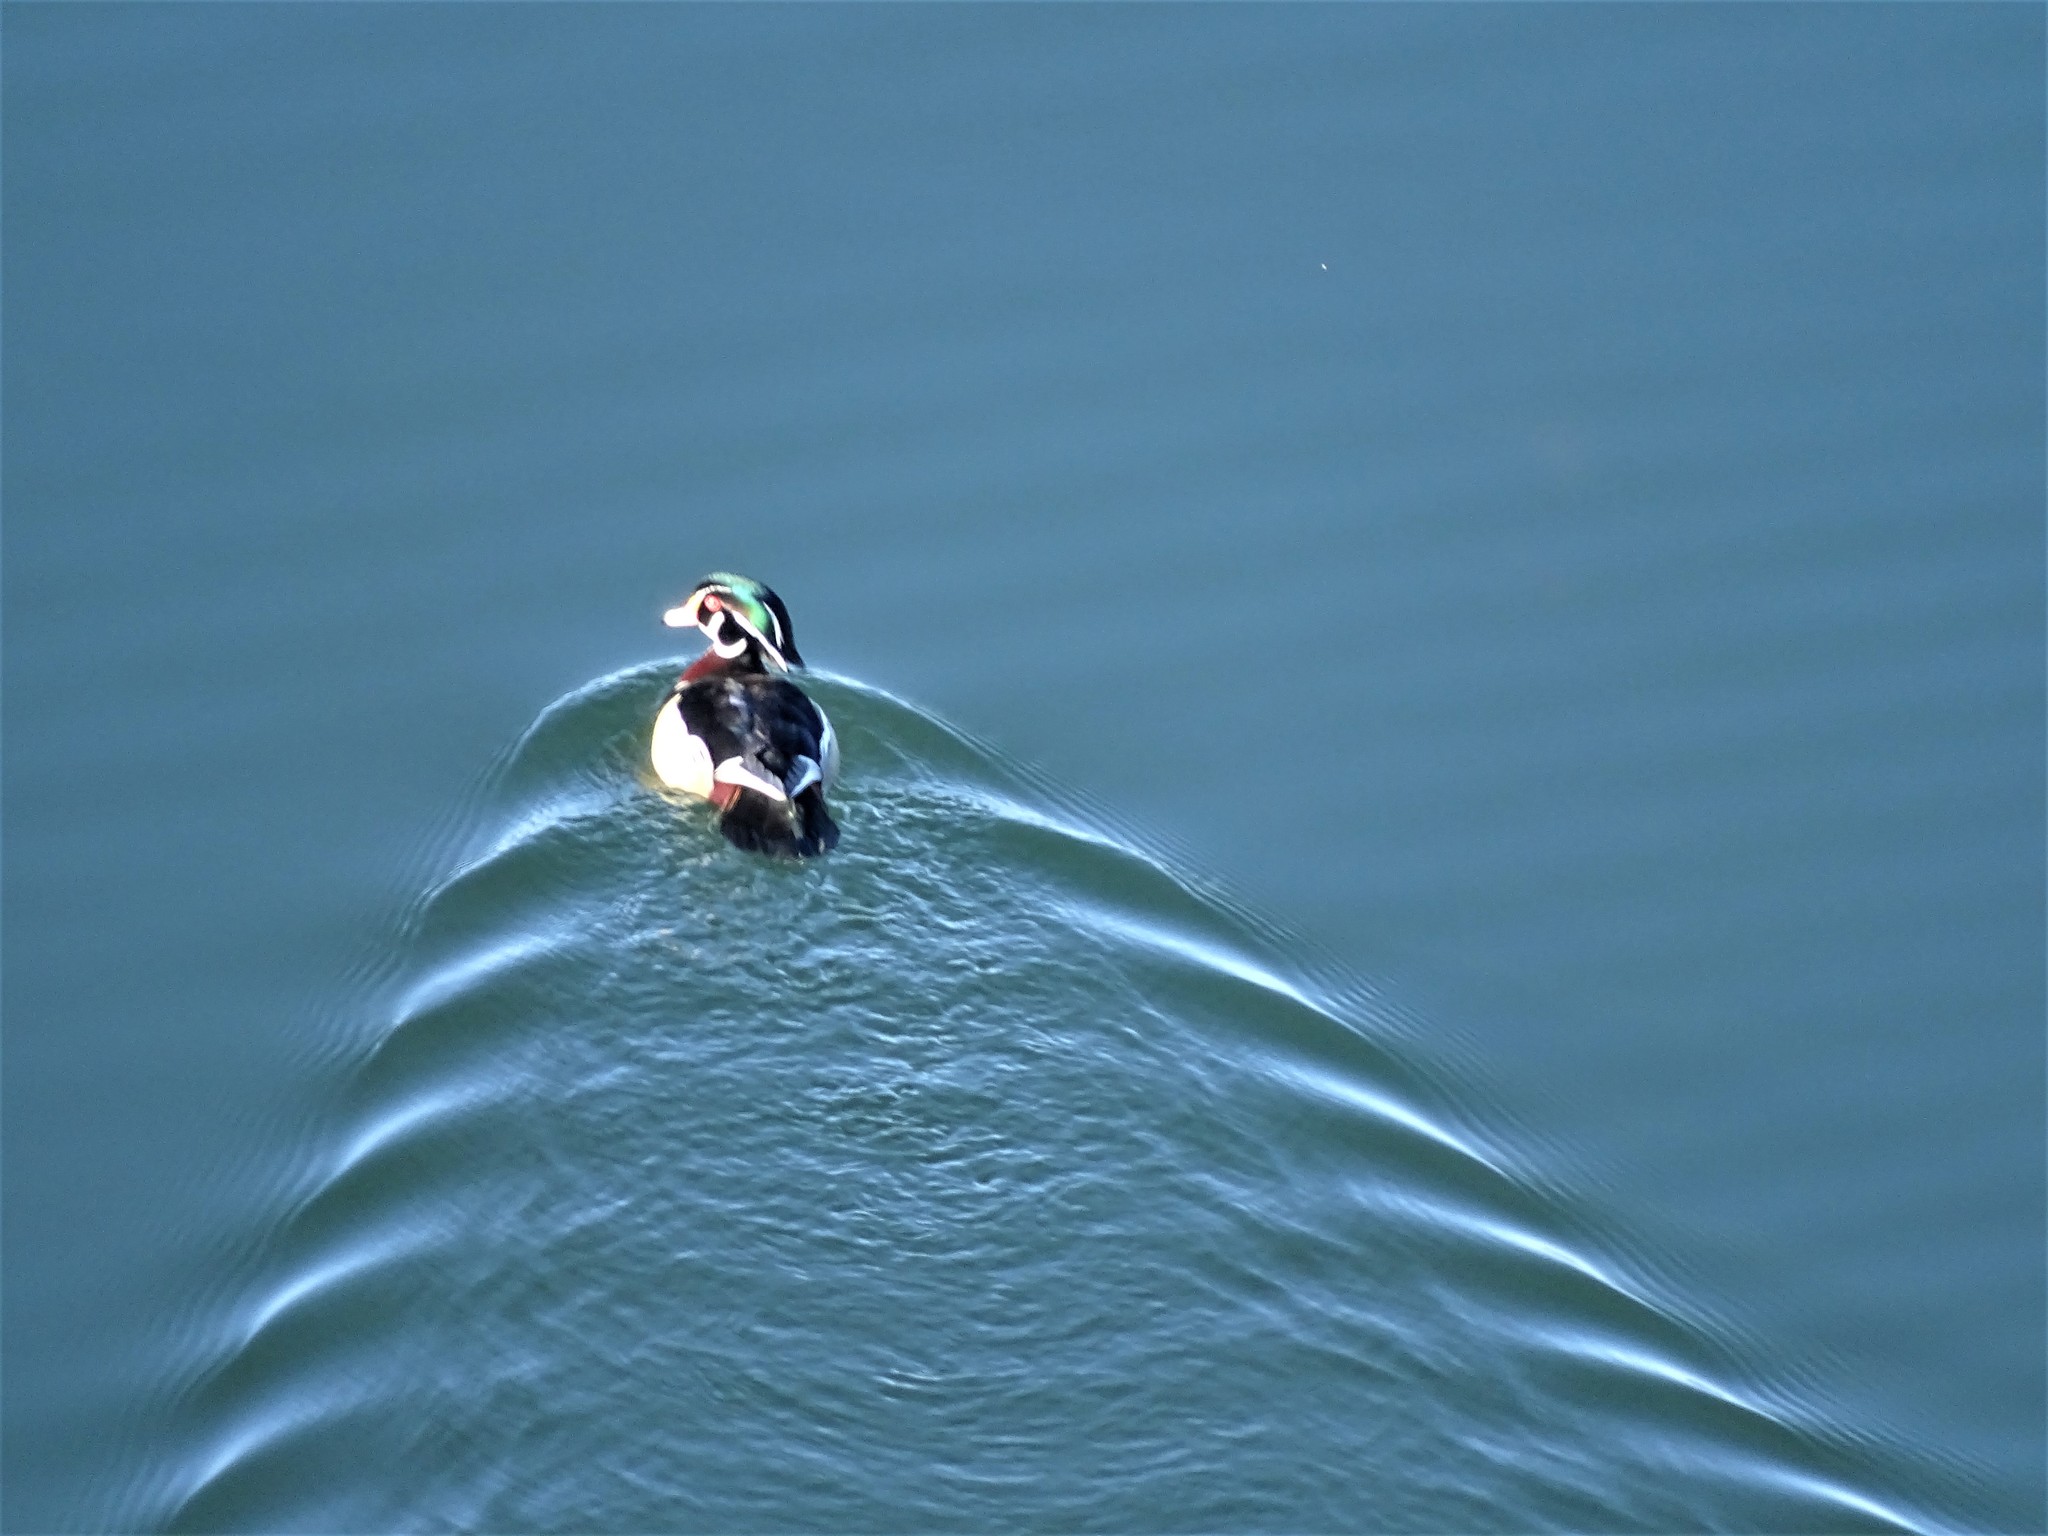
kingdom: Animalia
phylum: Chordata
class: Aves
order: Anseriformes
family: Anatidae
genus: Aix
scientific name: Aix sponsa
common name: Wood duck
